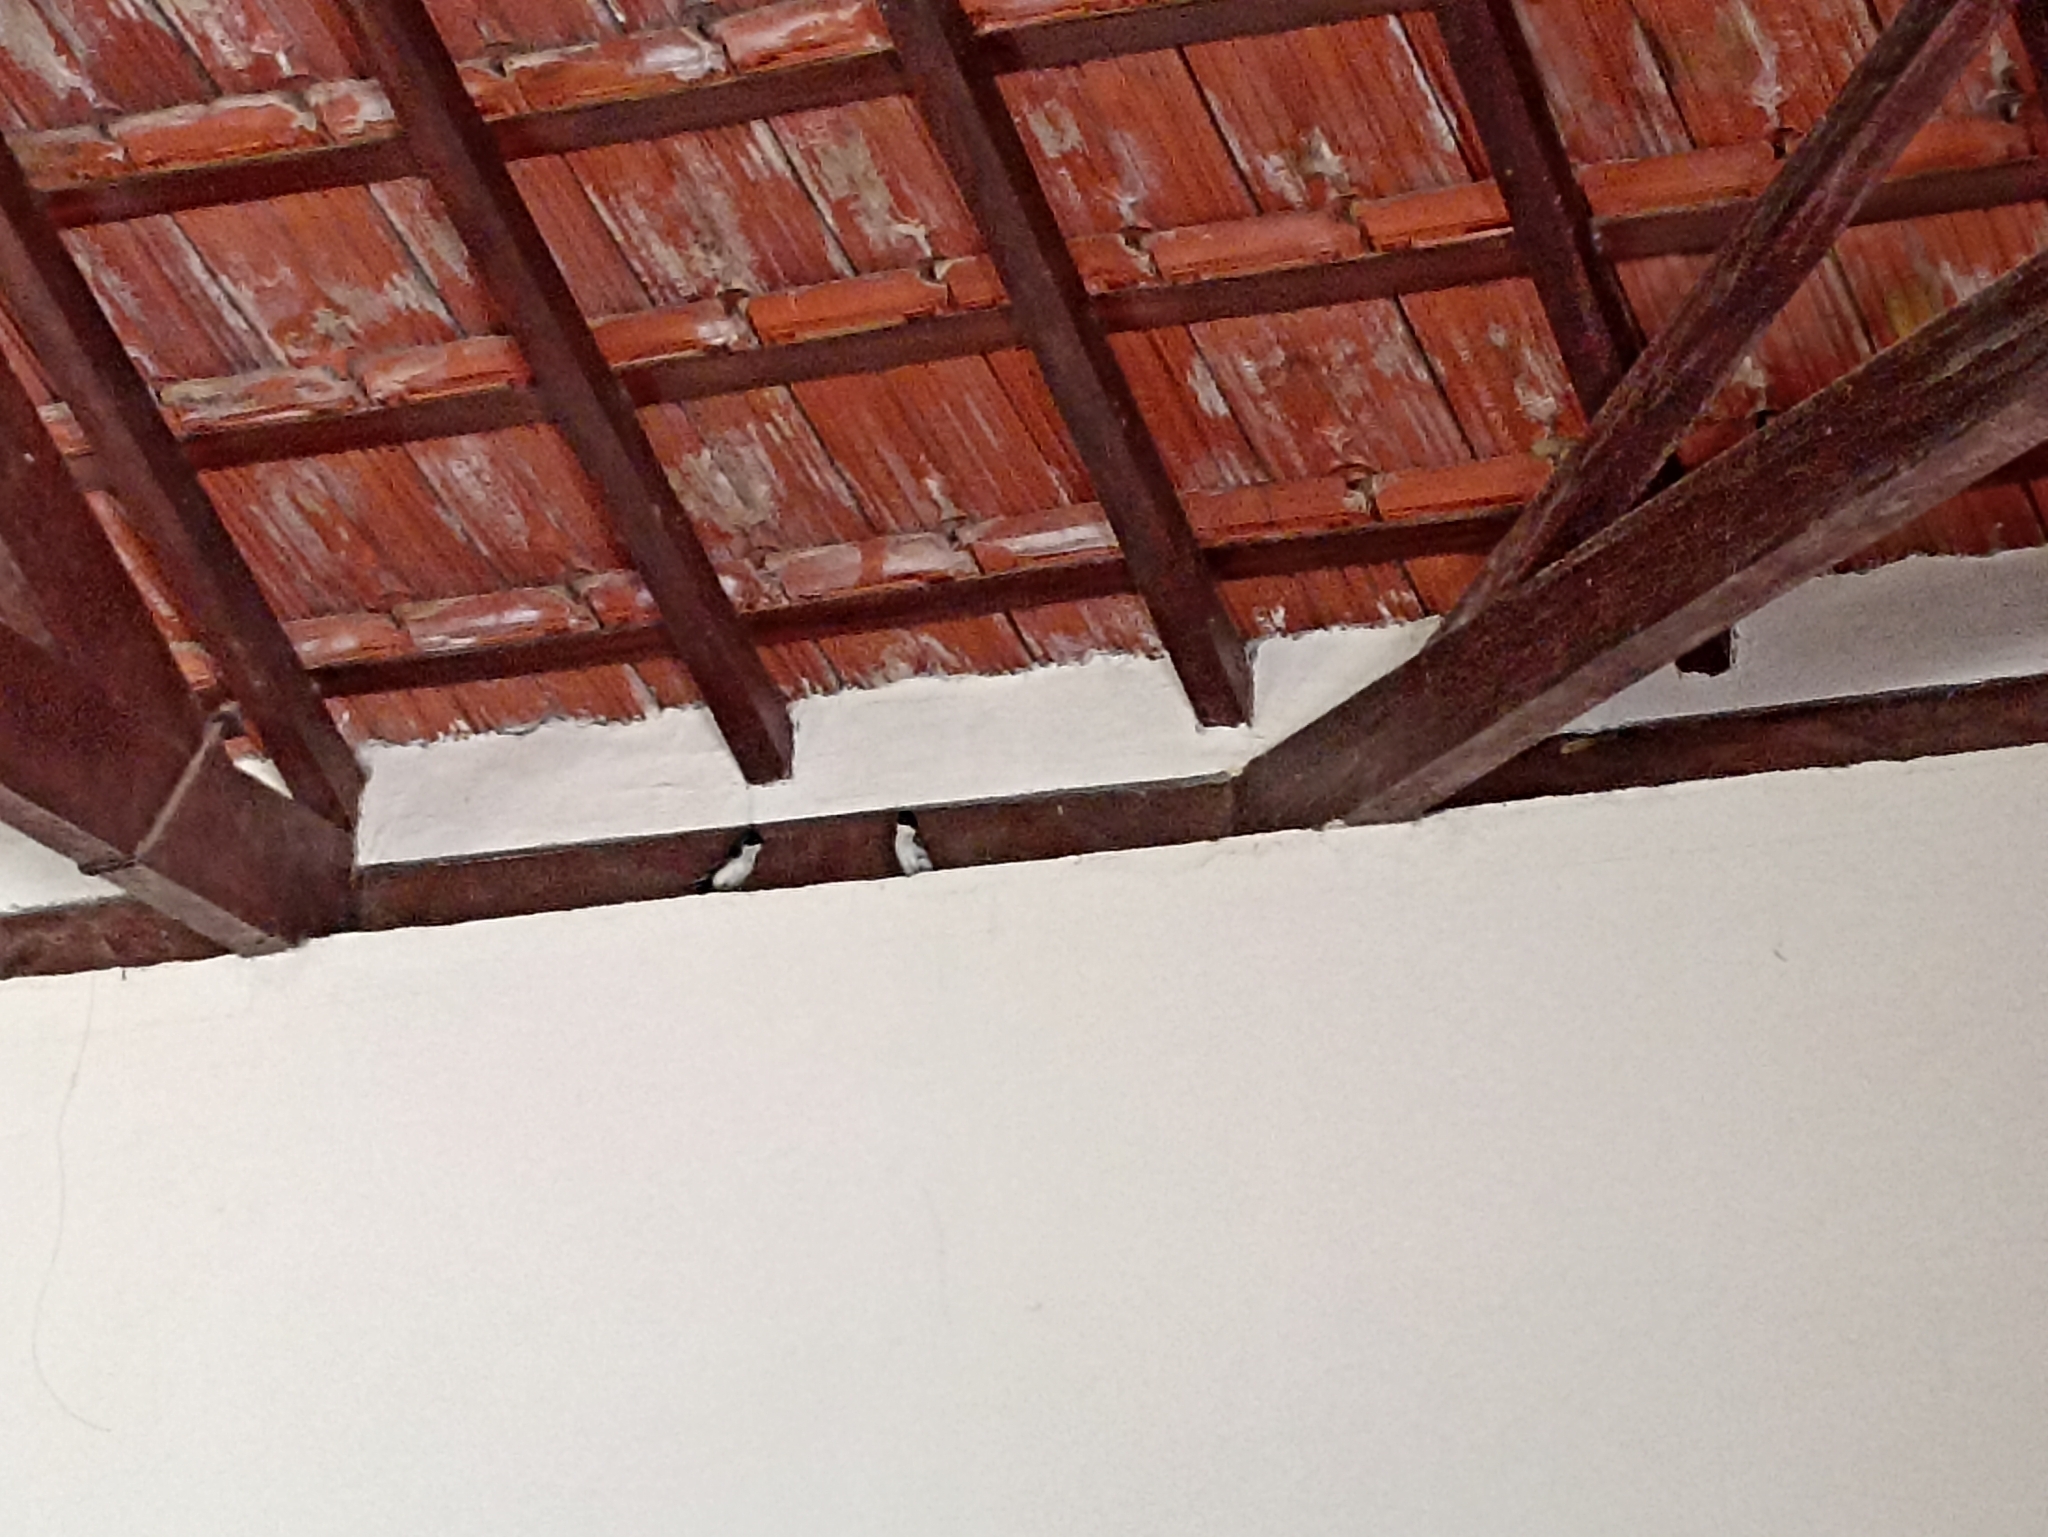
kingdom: Animalia
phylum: Chordata
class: Aves
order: Passeriformes
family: Hirundinidae
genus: Notiochelidon
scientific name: Notiochelidon cyanoleuca
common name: Blue-and-white swallow
